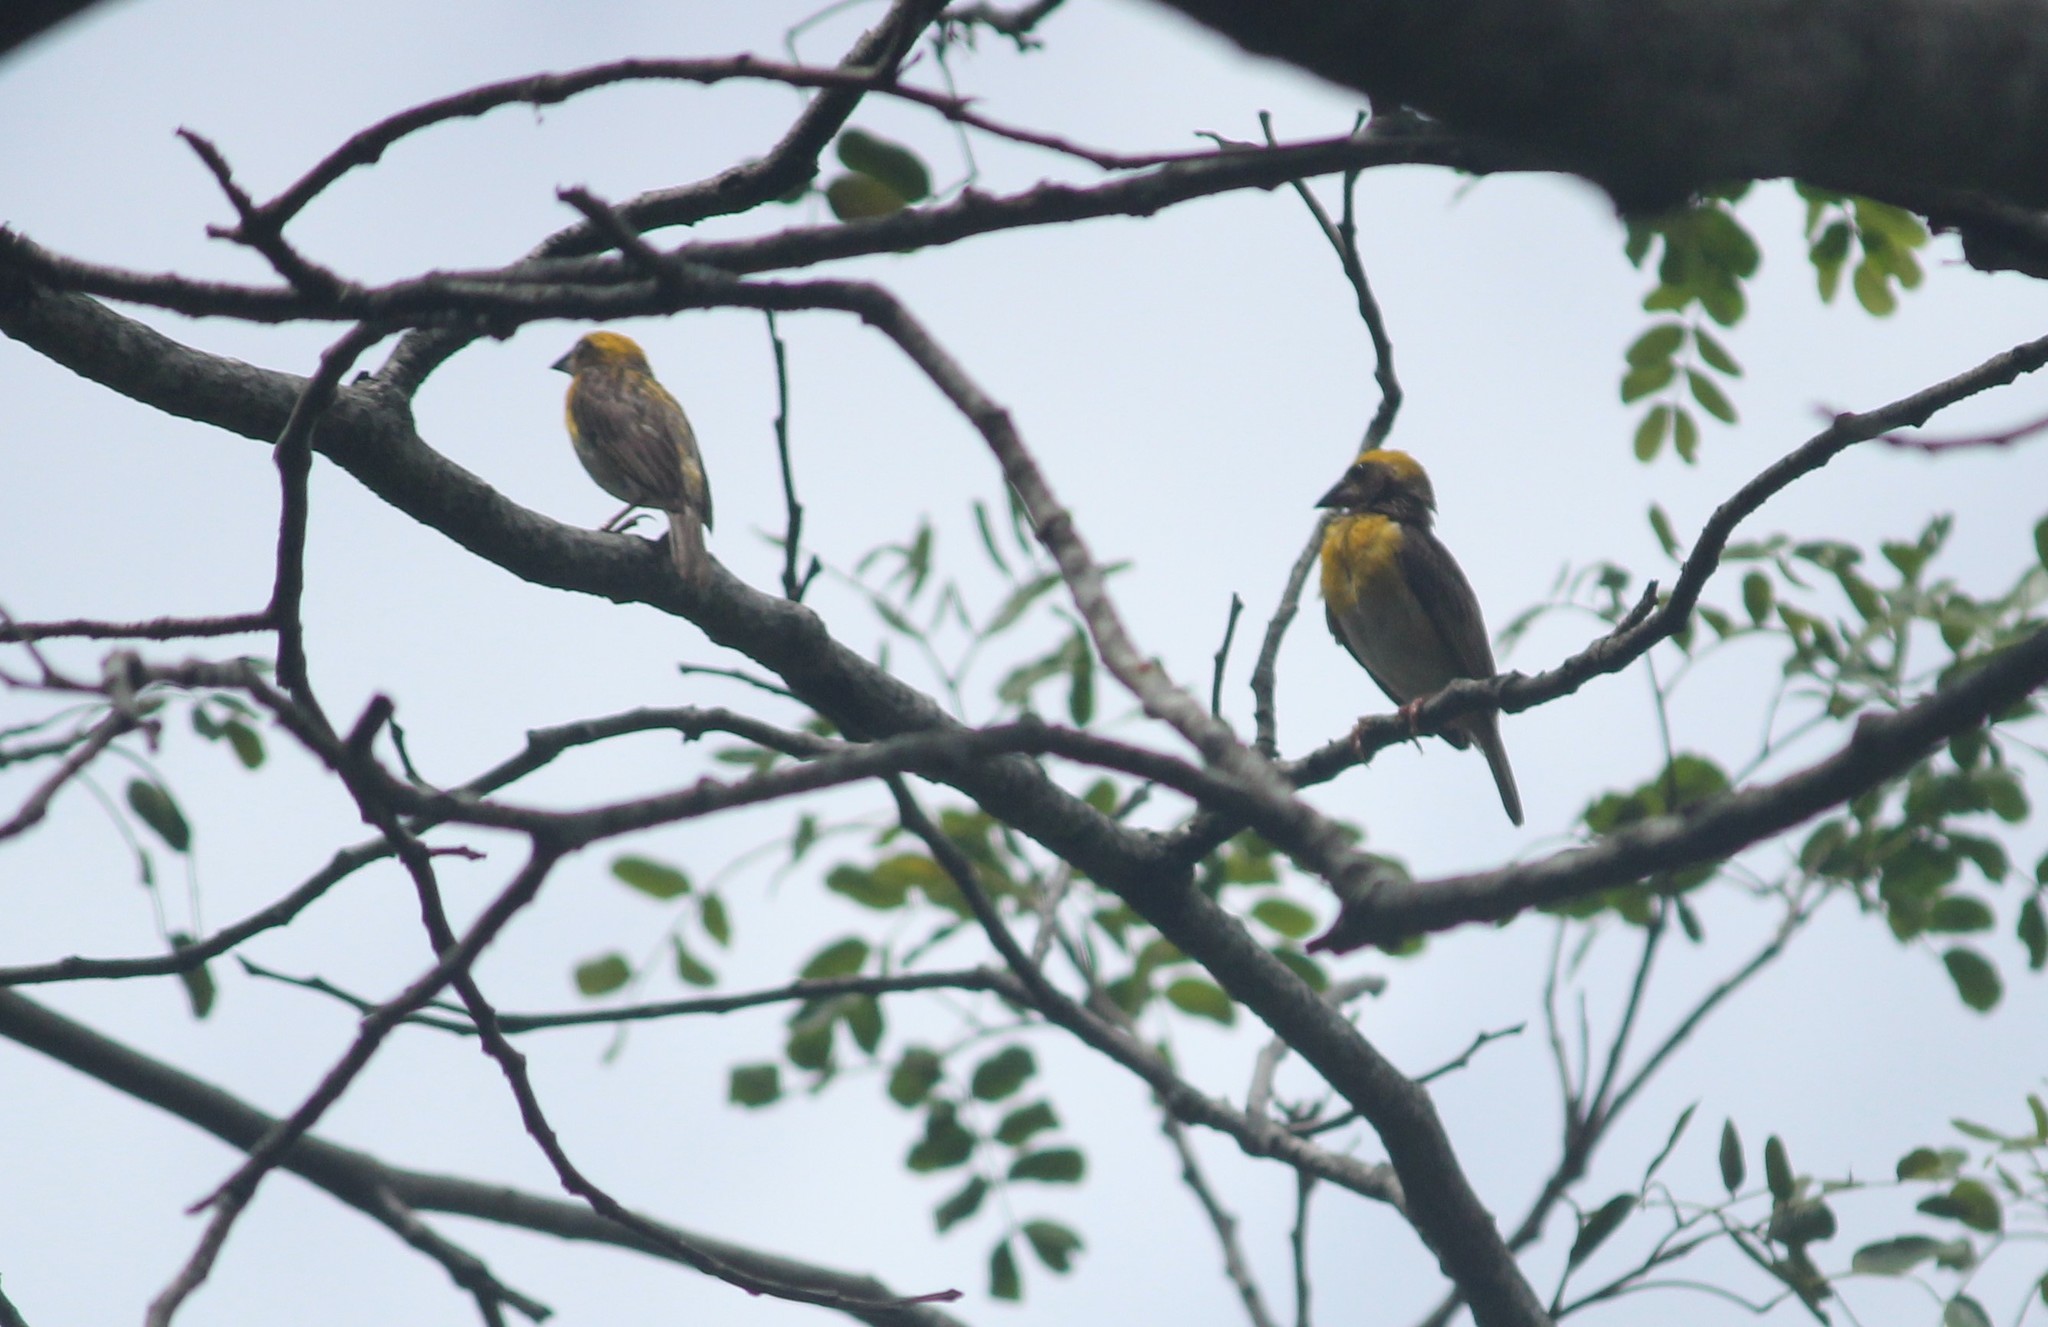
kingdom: Animalia
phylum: Chordata
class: Aves
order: Passeriformes
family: Ploceidae
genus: Ploceus
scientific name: Ploceus philippinus
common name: Baya weaver
